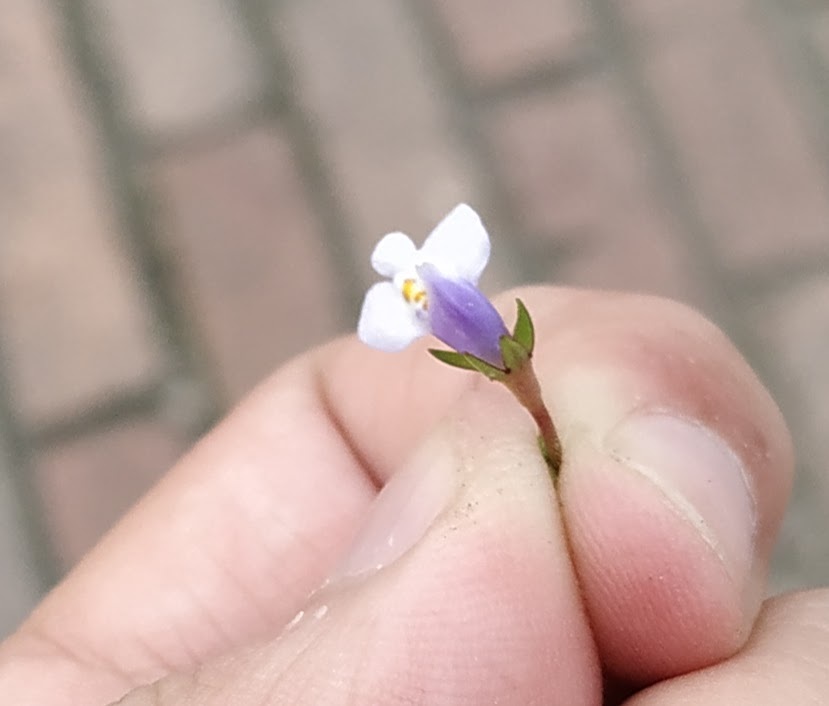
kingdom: Plantae
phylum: Tracheophyta
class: Magnoliopsida
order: Lamiales
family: Mazaceae
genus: Mazus
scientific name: Mazus pumilus
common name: Japanese mazus
